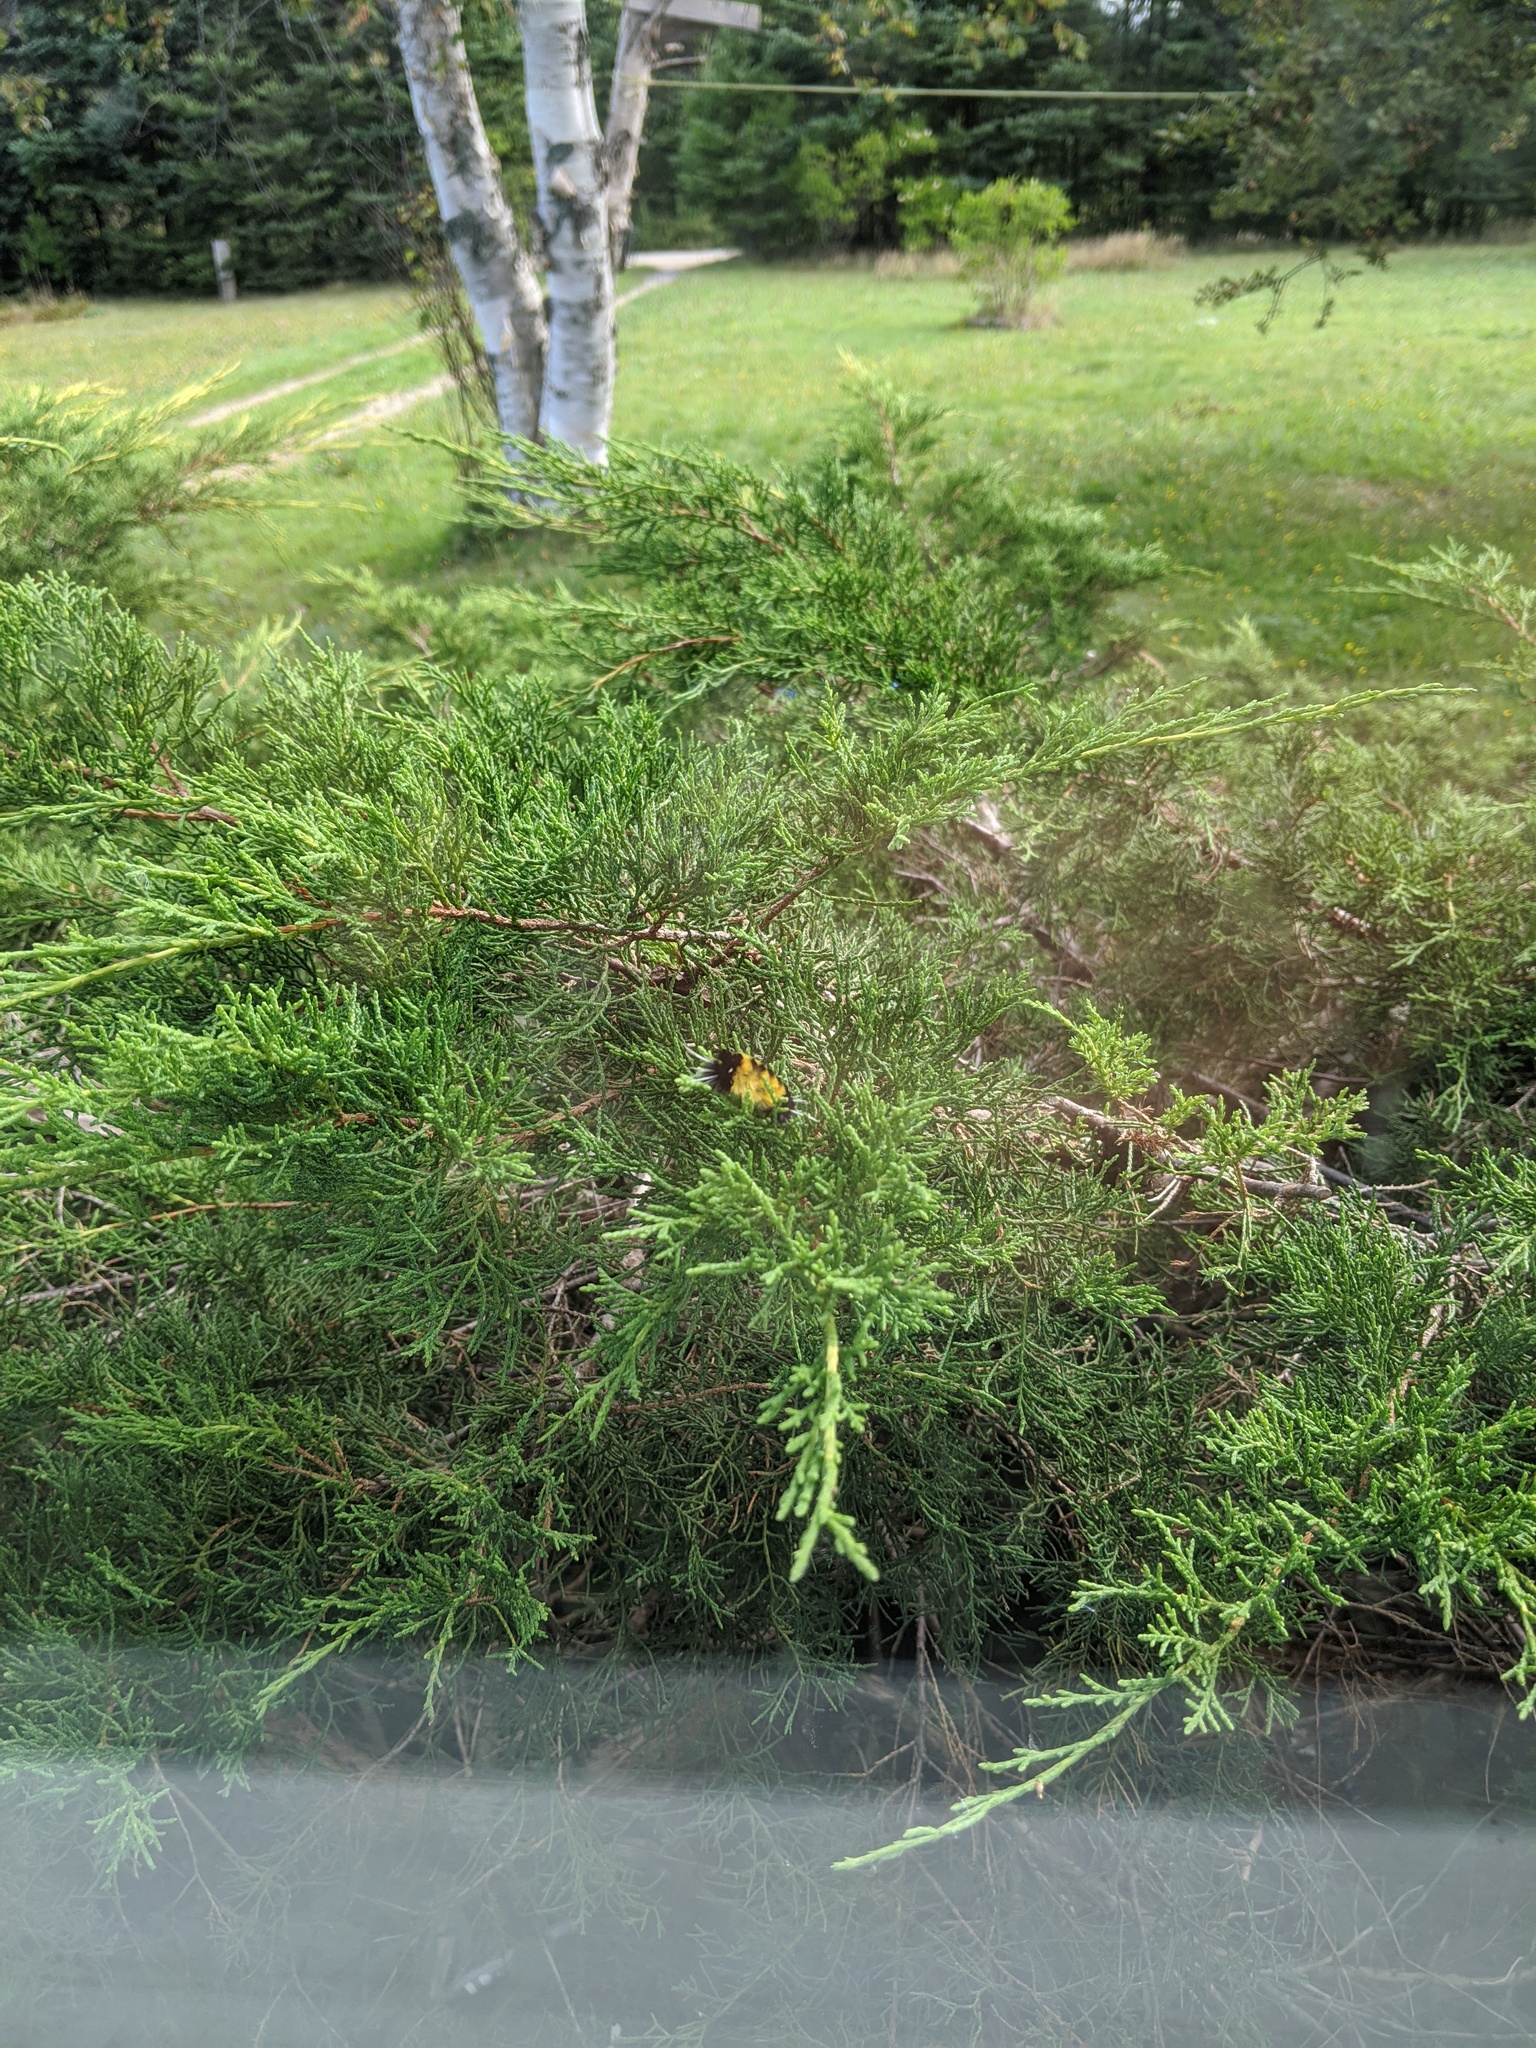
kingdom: Animalia
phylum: Arthropoda
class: Insecta
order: Lepidoptera
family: Erebidae
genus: Lophocampa
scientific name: Lophocampa maculata
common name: Spotted tussock moth
